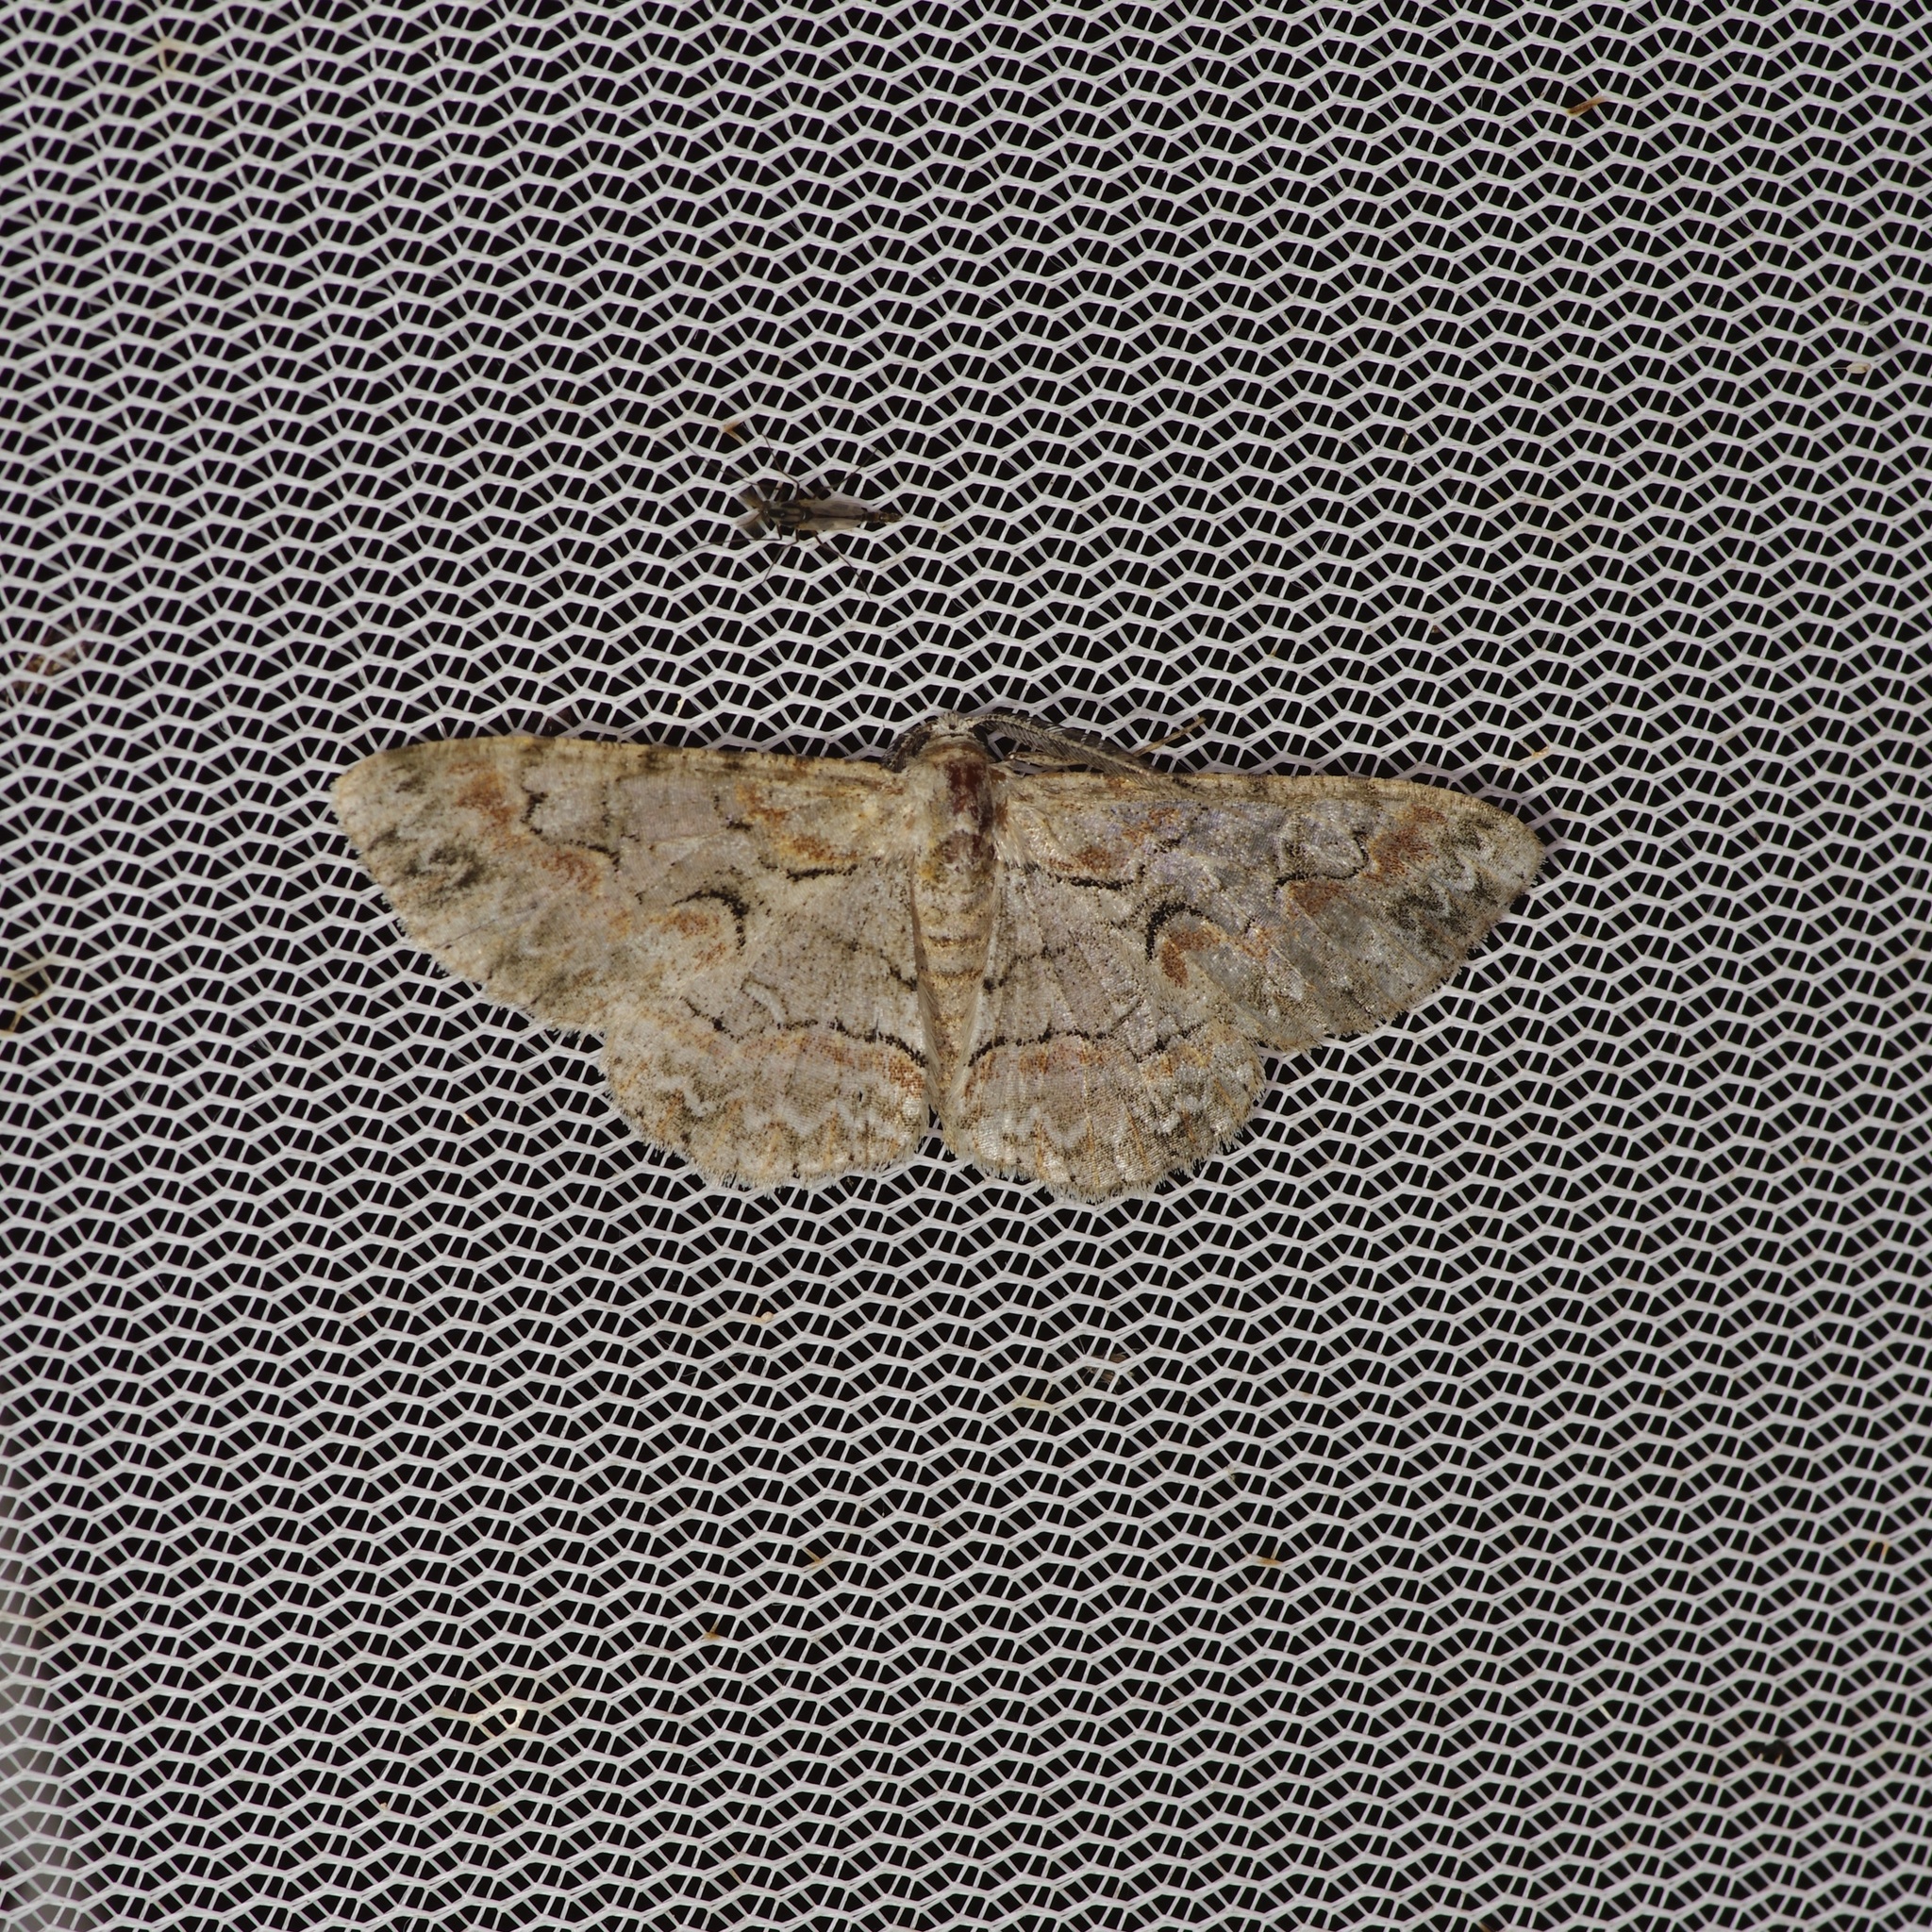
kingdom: Animalia
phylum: Arthropoda
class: Insecta
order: Lepidoptera
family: Geometridae
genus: Iridopsis
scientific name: Iridopsis defectaria
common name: Brown-shaded gray
